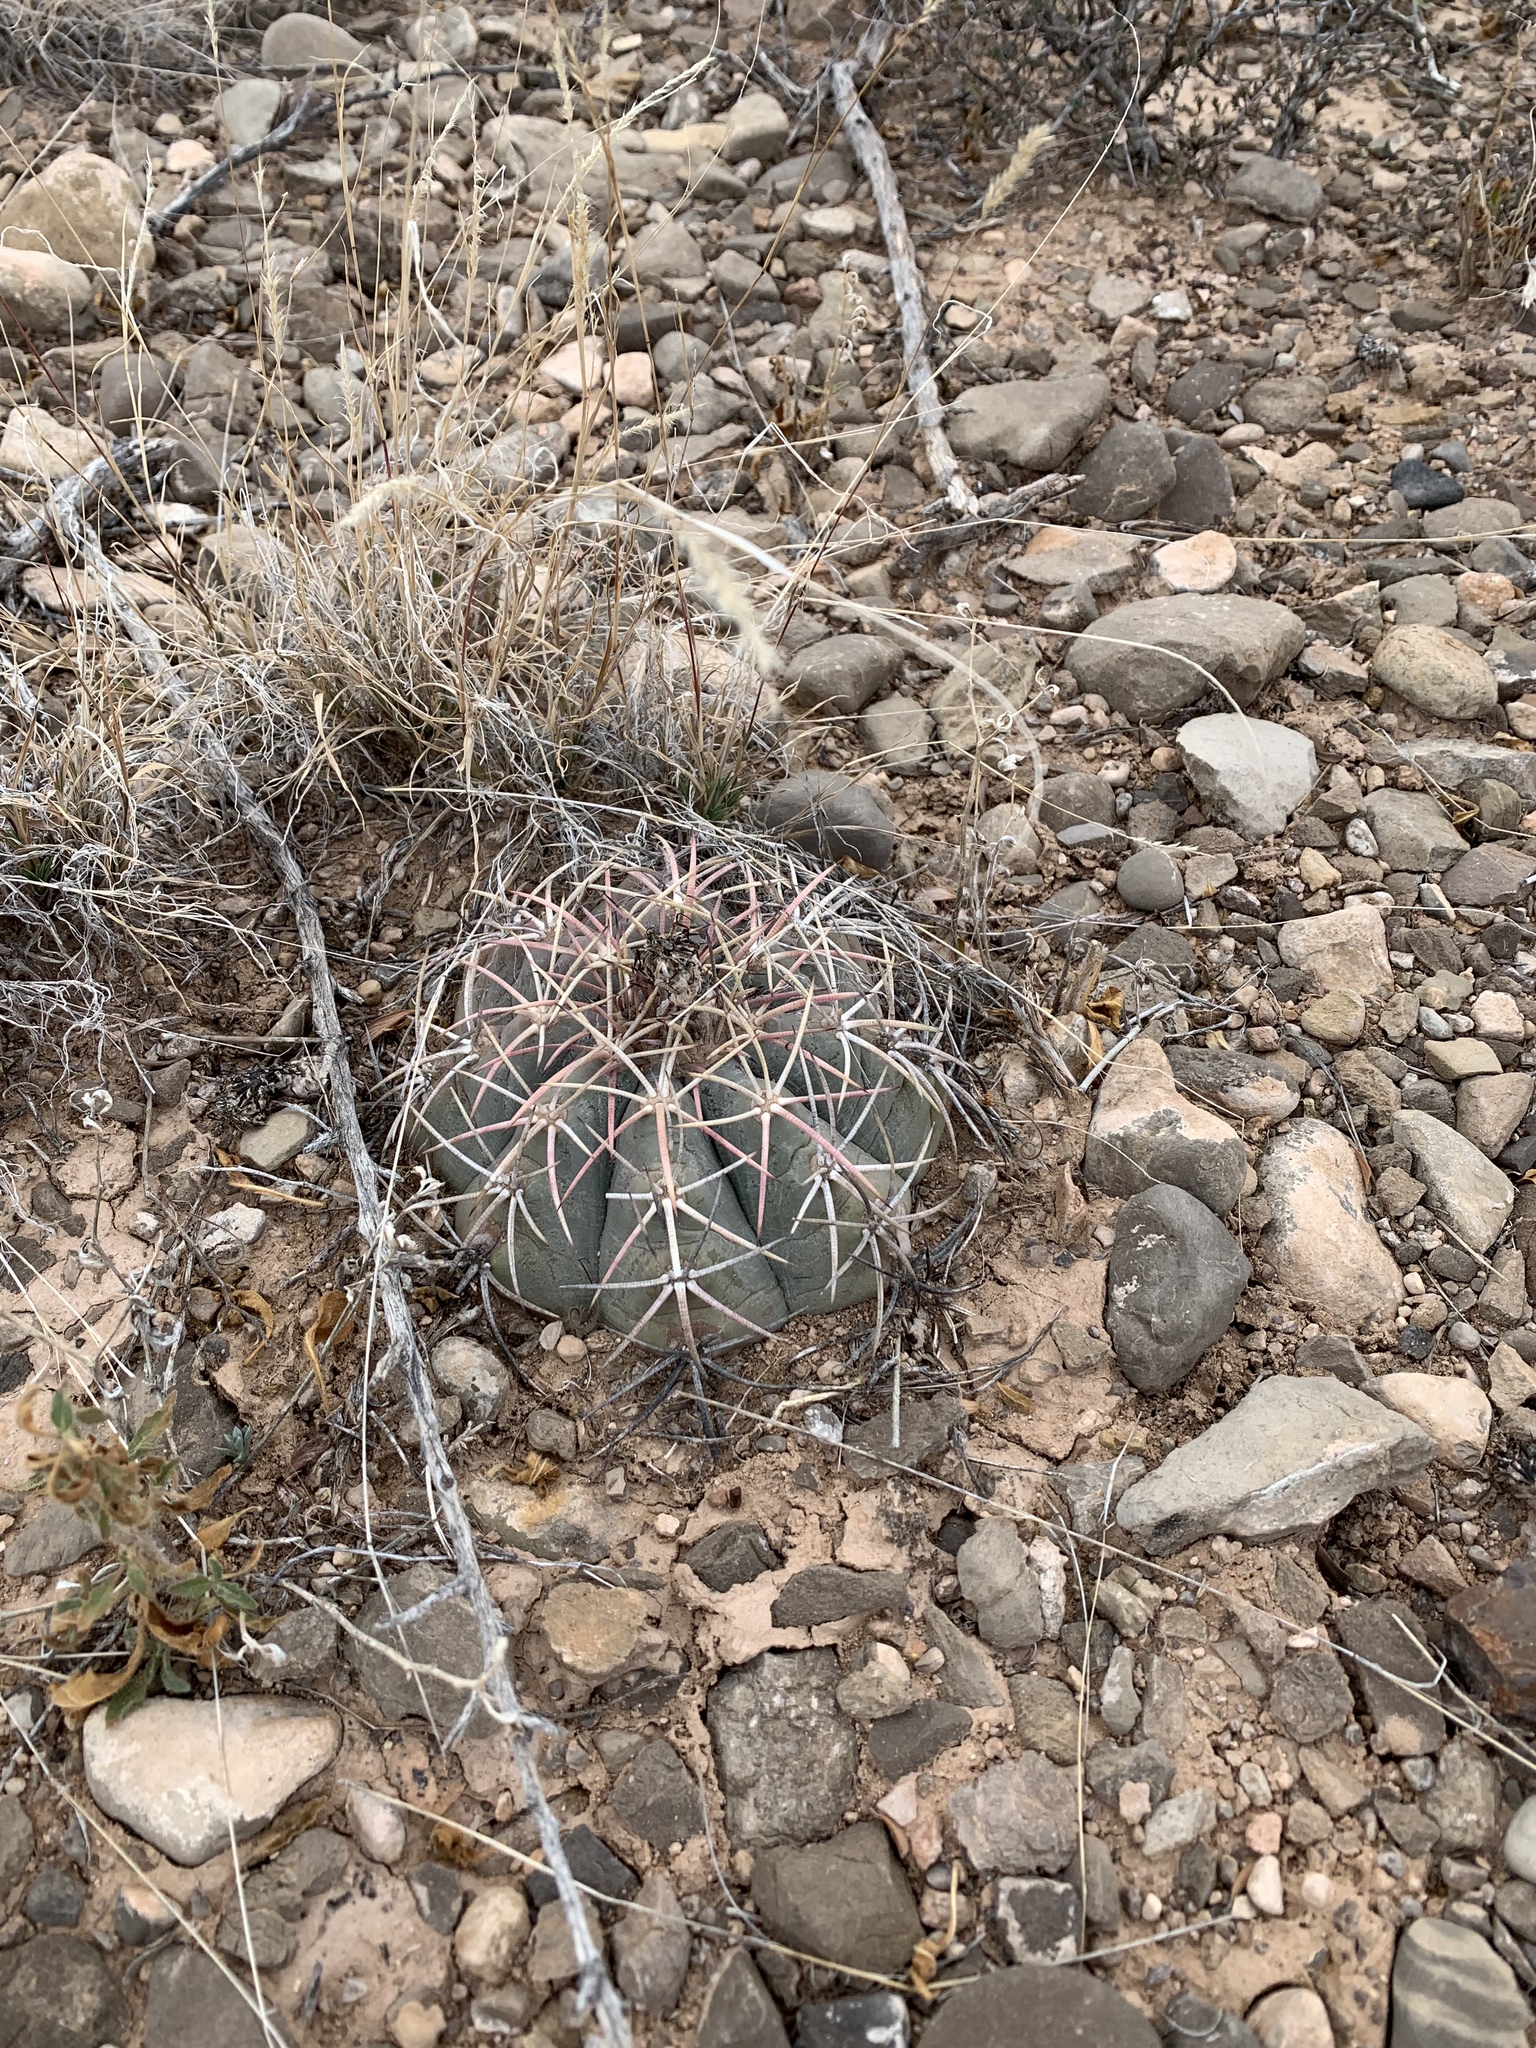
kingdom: Plantae
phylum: Tracheophyta
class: Magnoliopsida
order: Caryophyllales
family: Cactaceae
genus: Echinocactus
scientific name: Echinocactus horizonthalonius
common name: Devilshead
